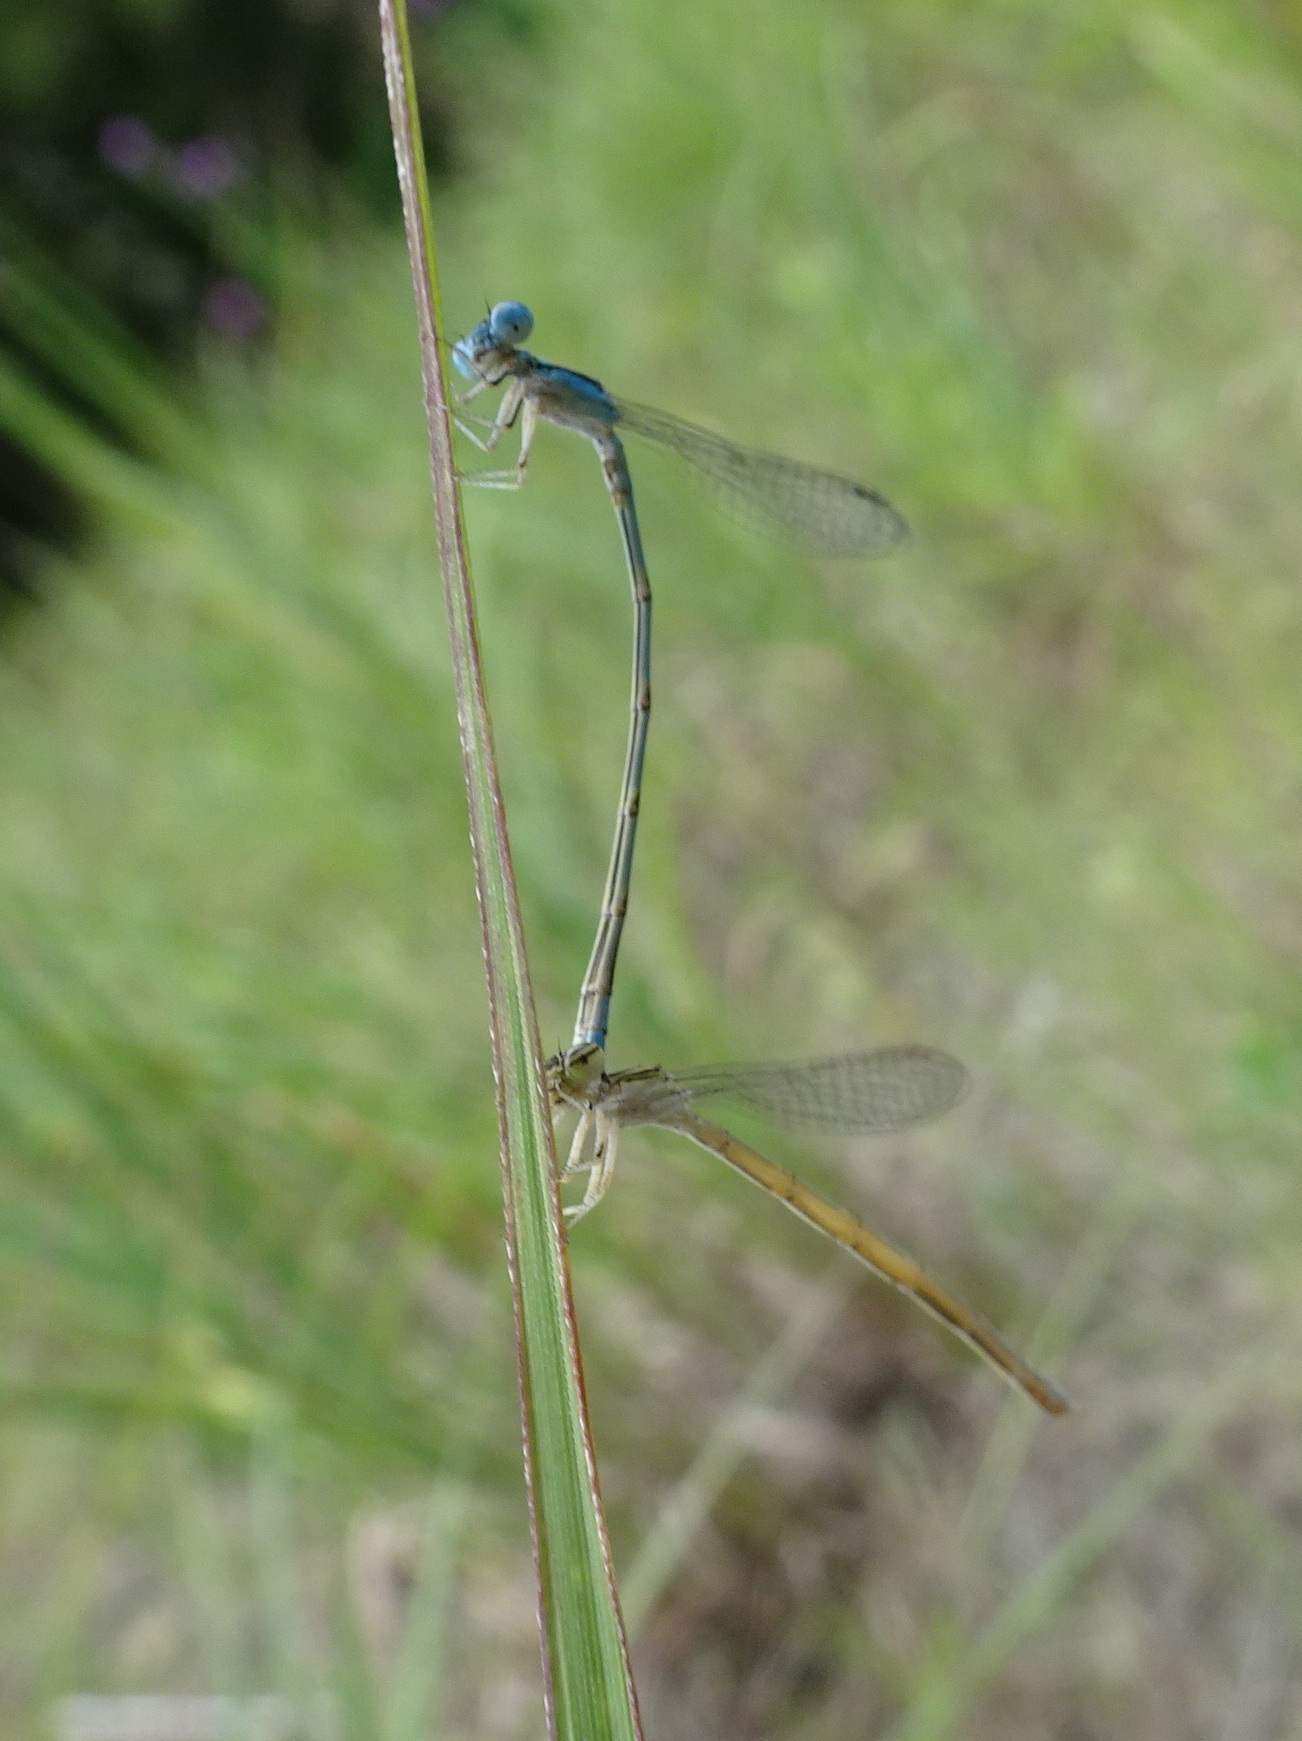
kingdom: Animalia
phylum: Arthropoda
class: Insecta
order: Odonata
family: Coenagrionidae
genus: Enallagma
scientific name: Enallagma basidens
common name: Double-striped bluet
